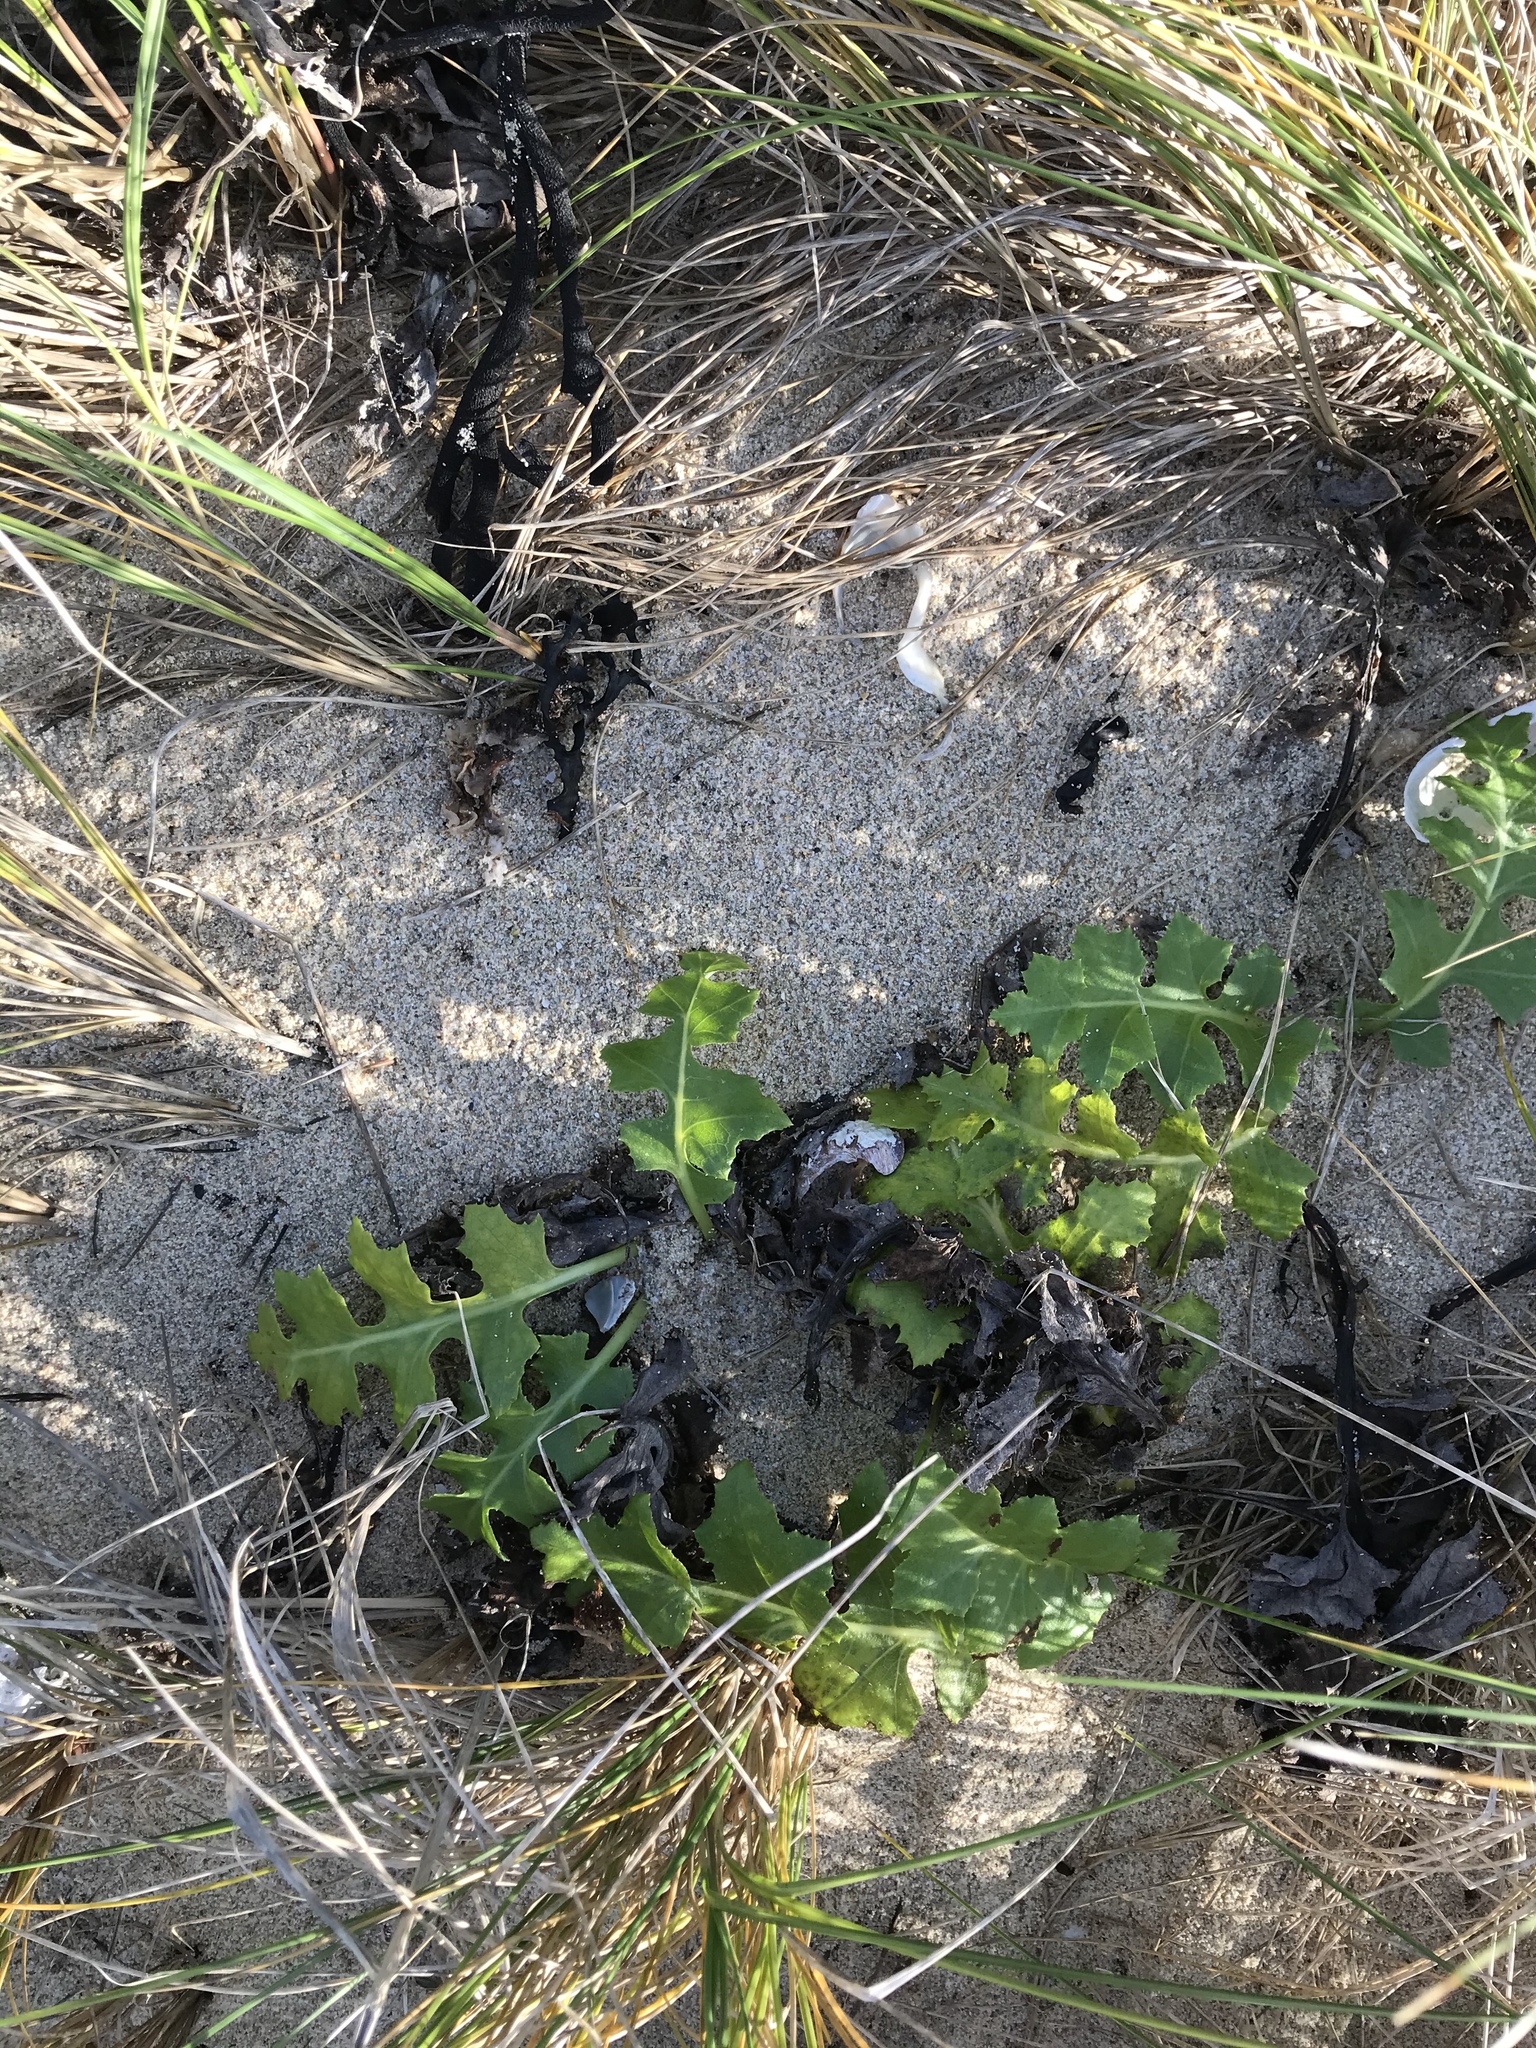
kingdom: Plantae
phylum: Tracheophyta
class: Magnoliopsida
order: Asterales
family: Asteraceae
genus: Sonchus
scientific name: Sonchus grandifolius
